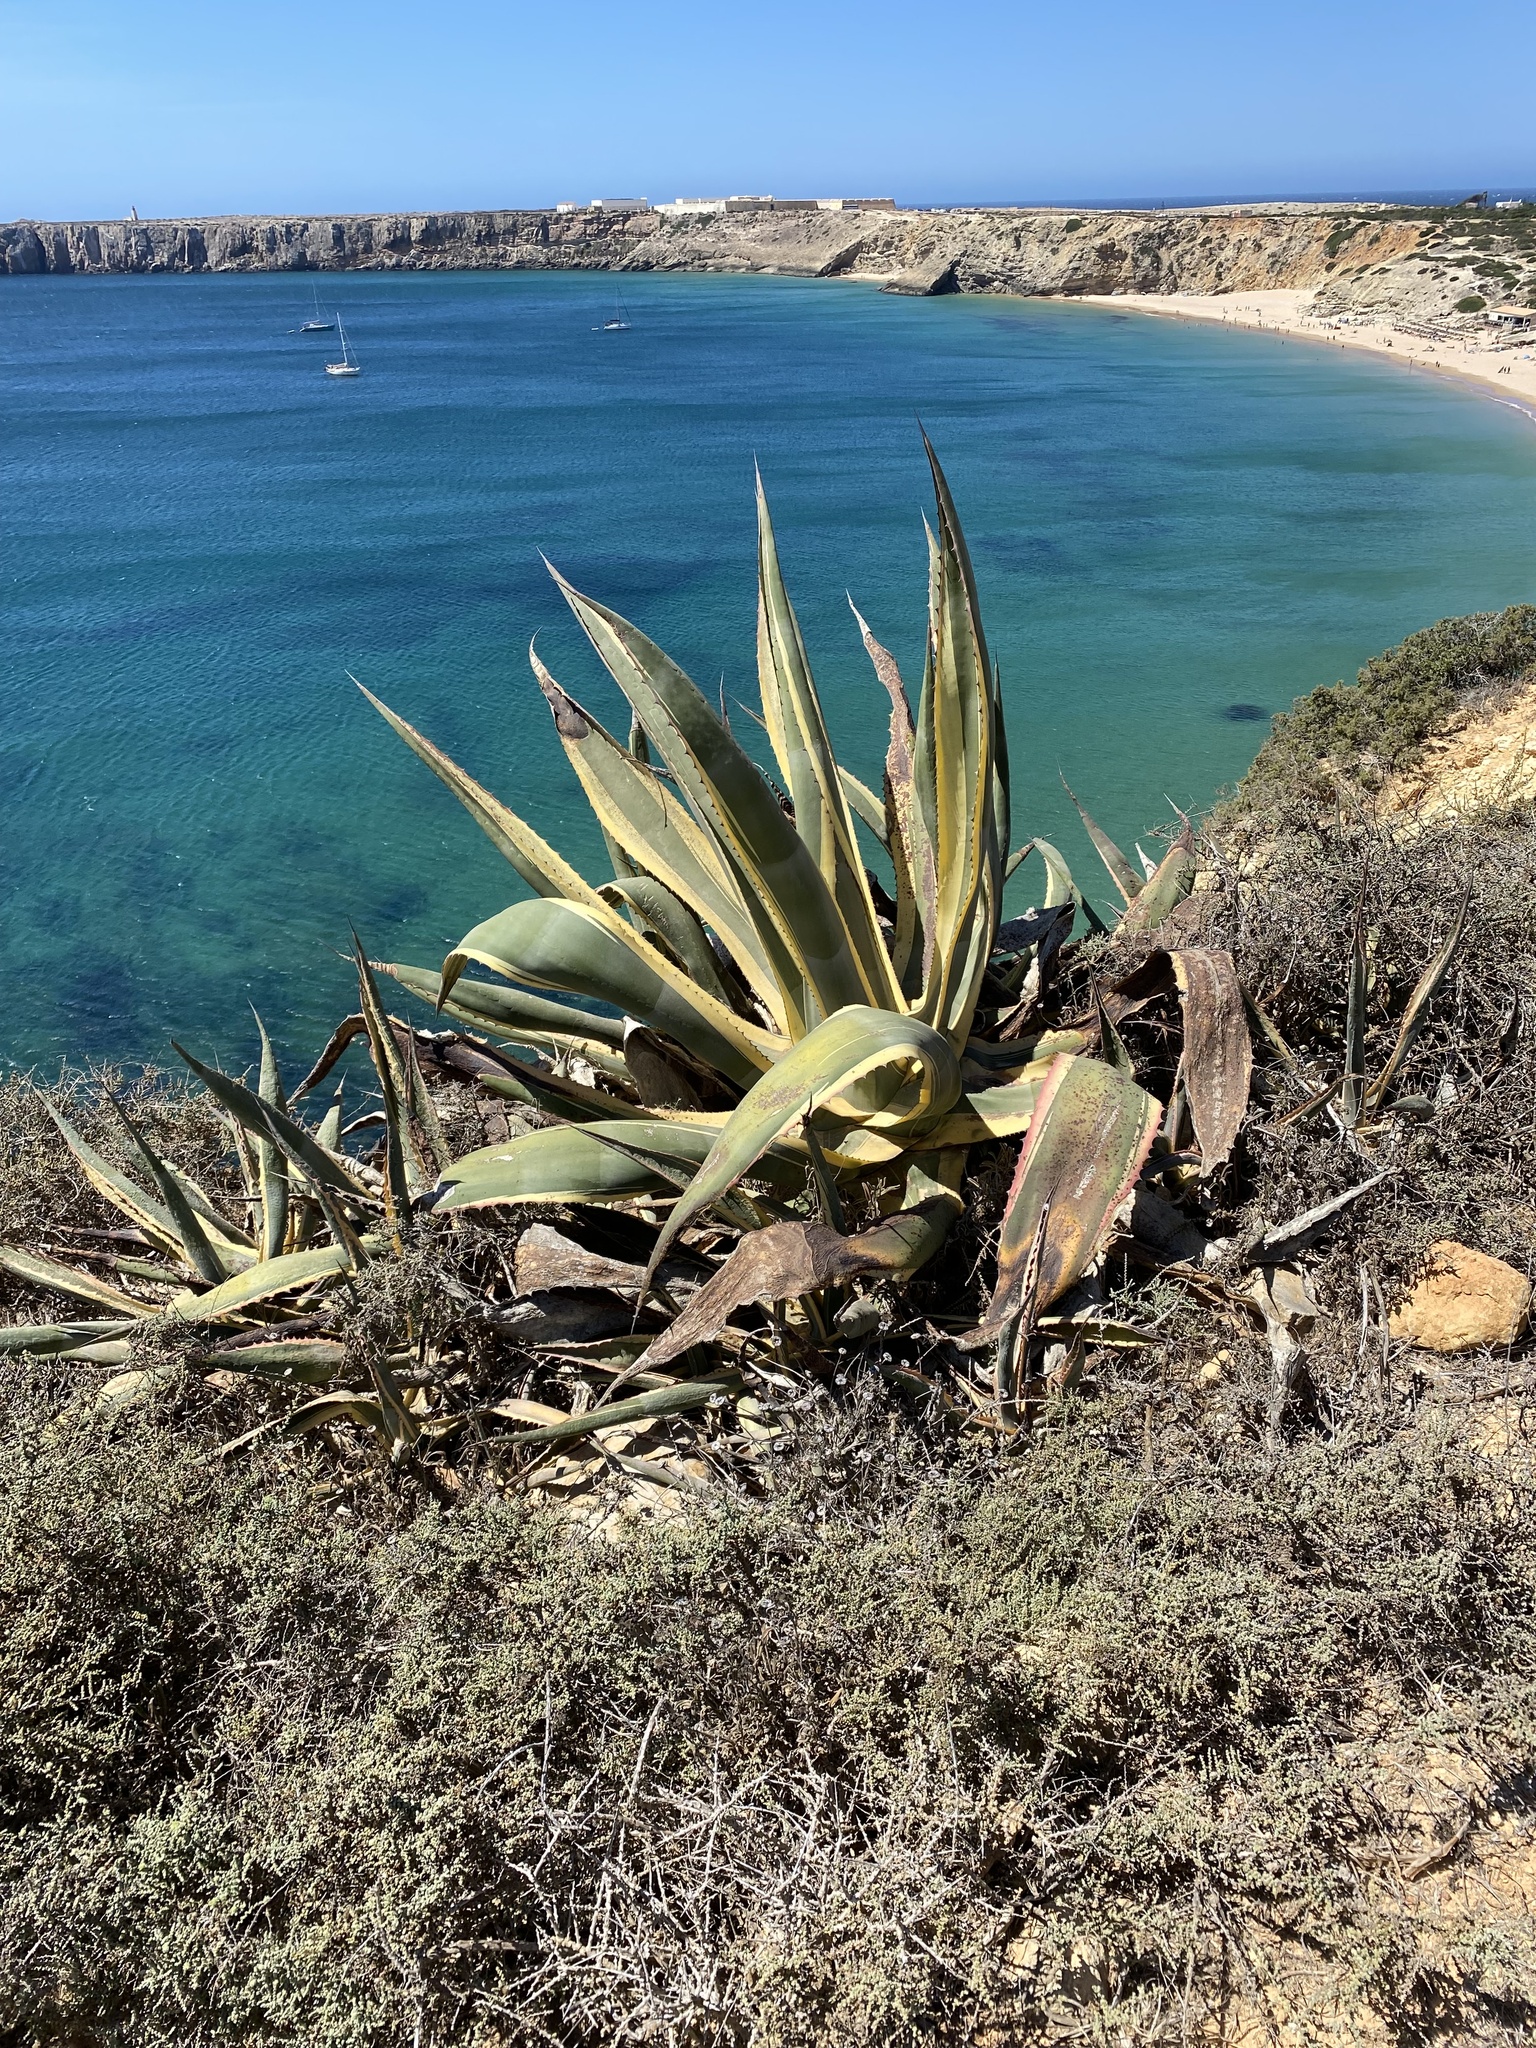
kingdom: Plantae
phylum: Tracheophyta
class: Liliopsida
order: Asparagales
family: Asparagaceae
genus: Agave
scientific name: Agave americana
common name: Centuryplant
